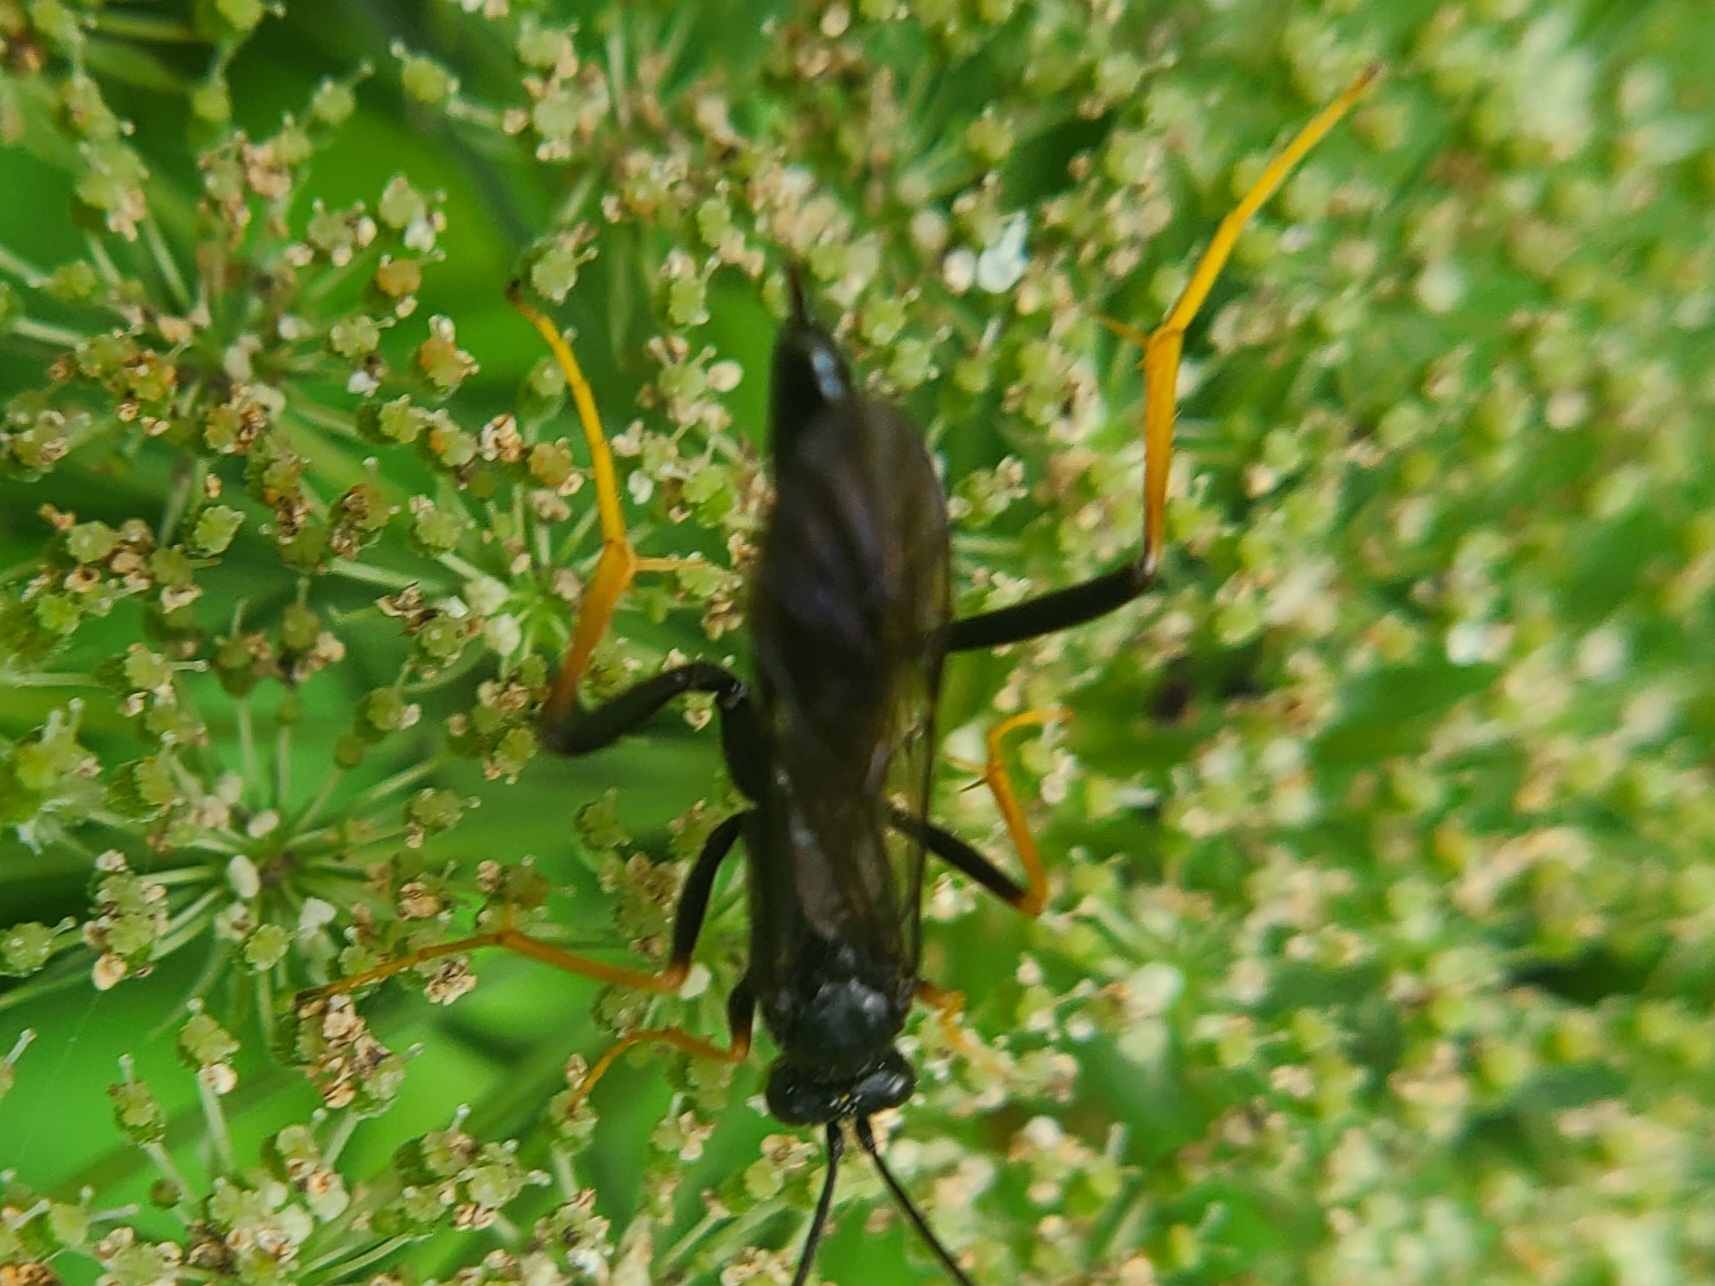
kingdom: Animalia
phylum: Arthropoda
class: Insecta
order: Hymenoptera
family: Ichneumonidae
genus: Exetastes
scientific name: Exetastes suaveolens
